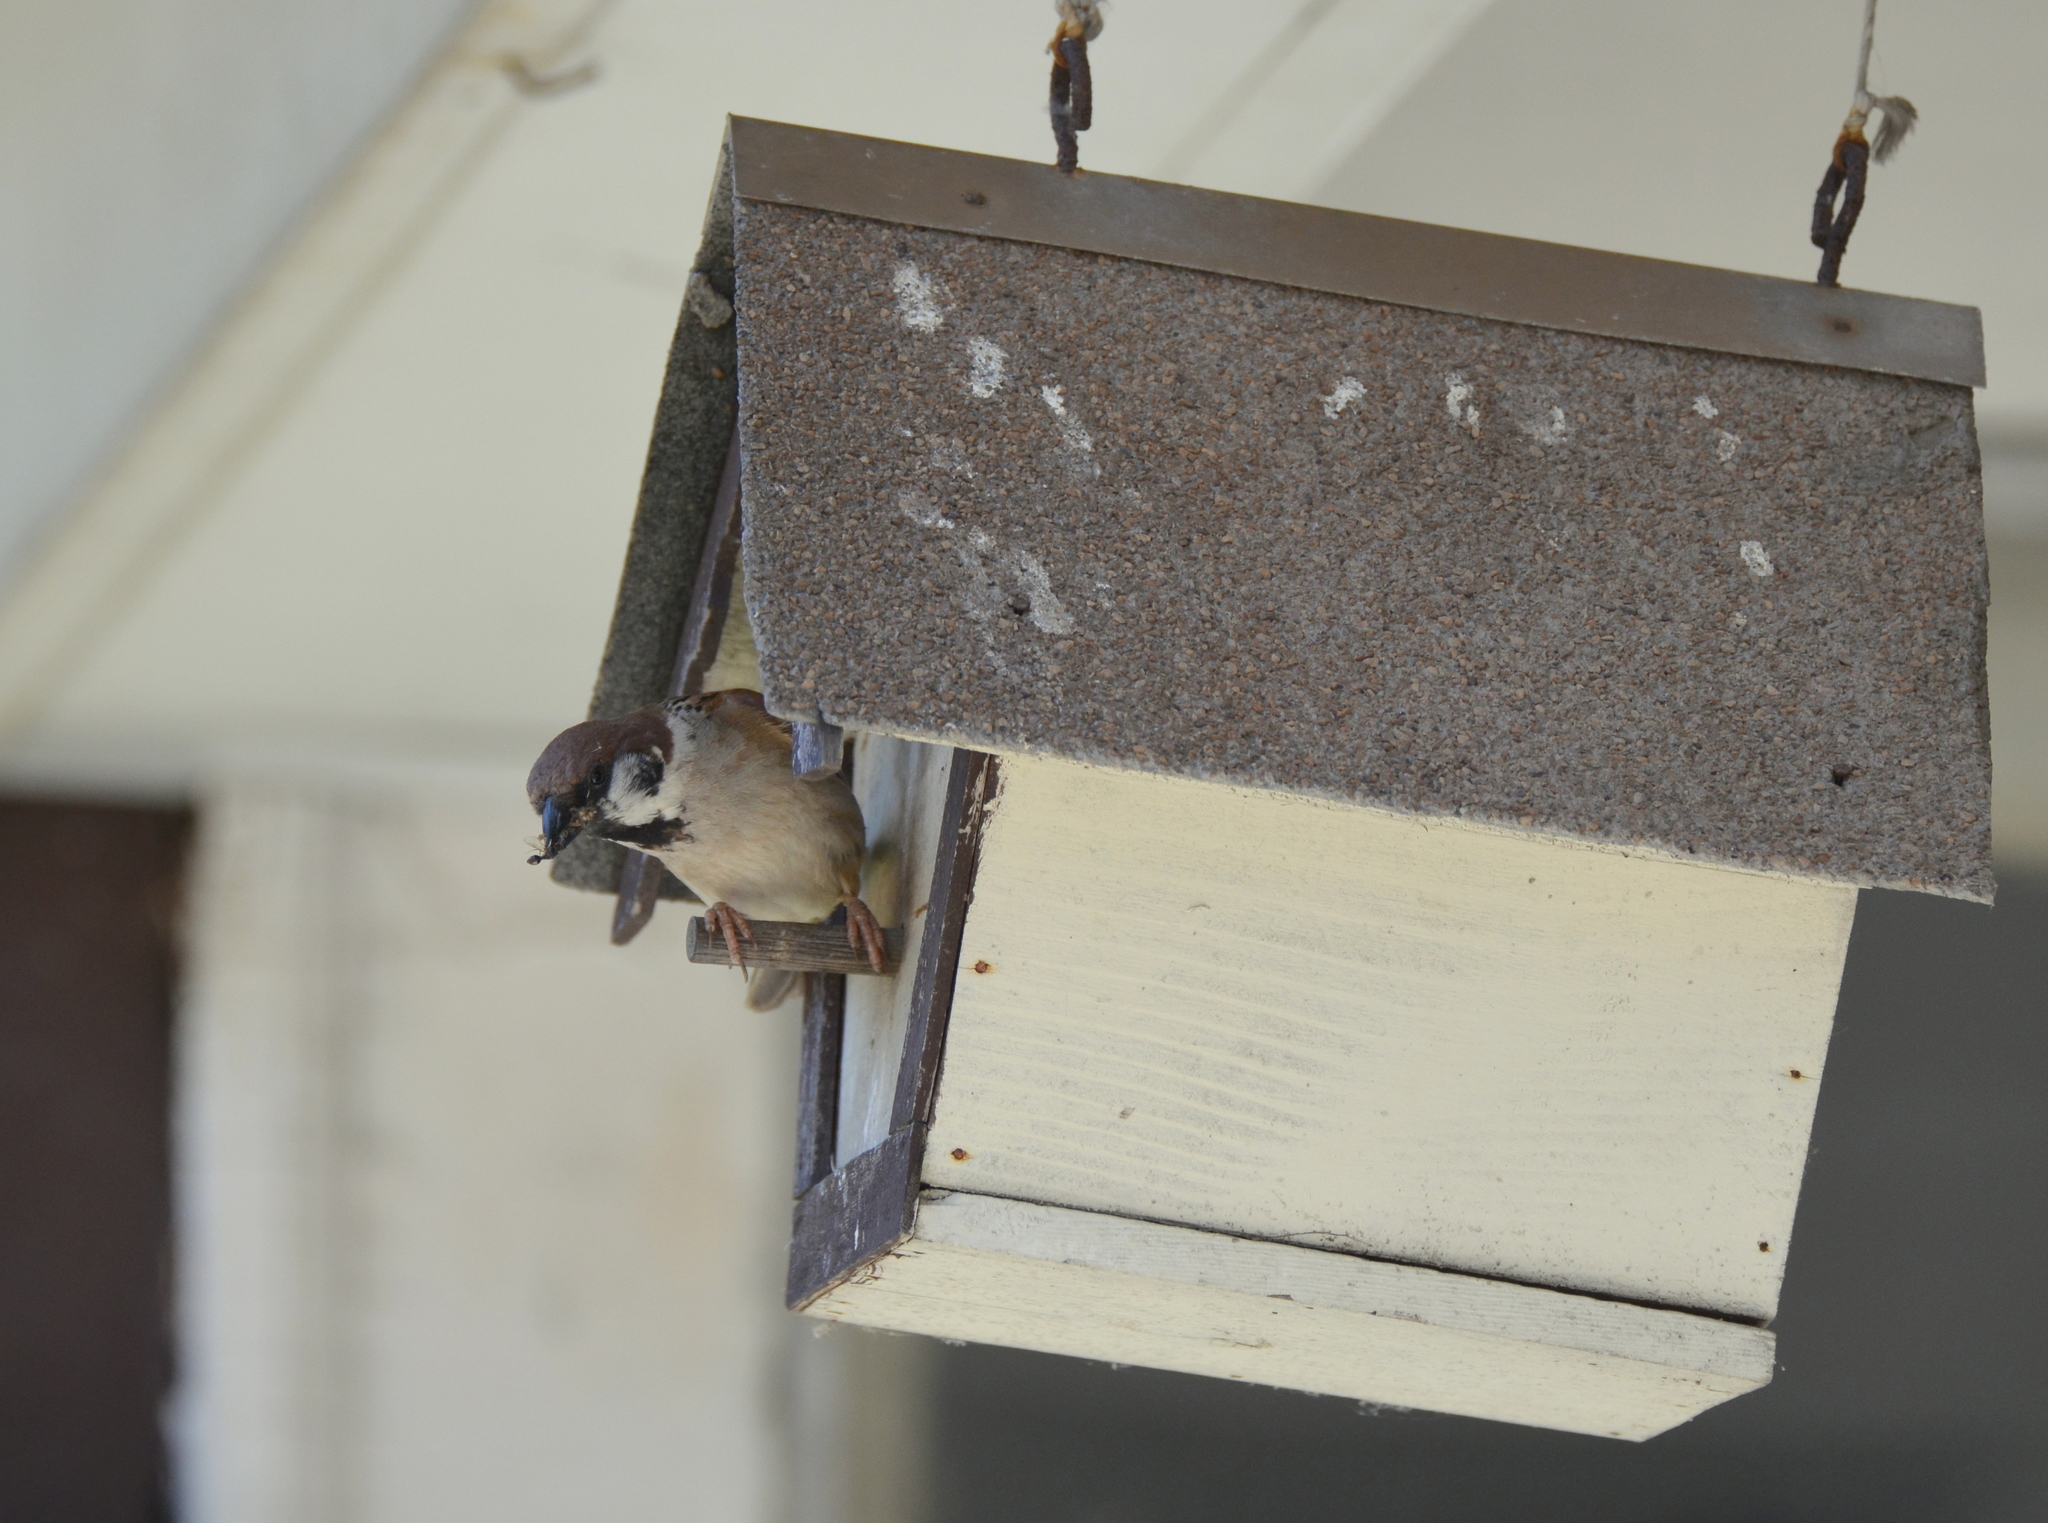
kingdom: Animalia
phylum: Chordata
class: Aves
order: Passeriformes
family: Passeridae
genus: Passer
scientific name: Passer montanus
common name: Eurasian tree sparrow
